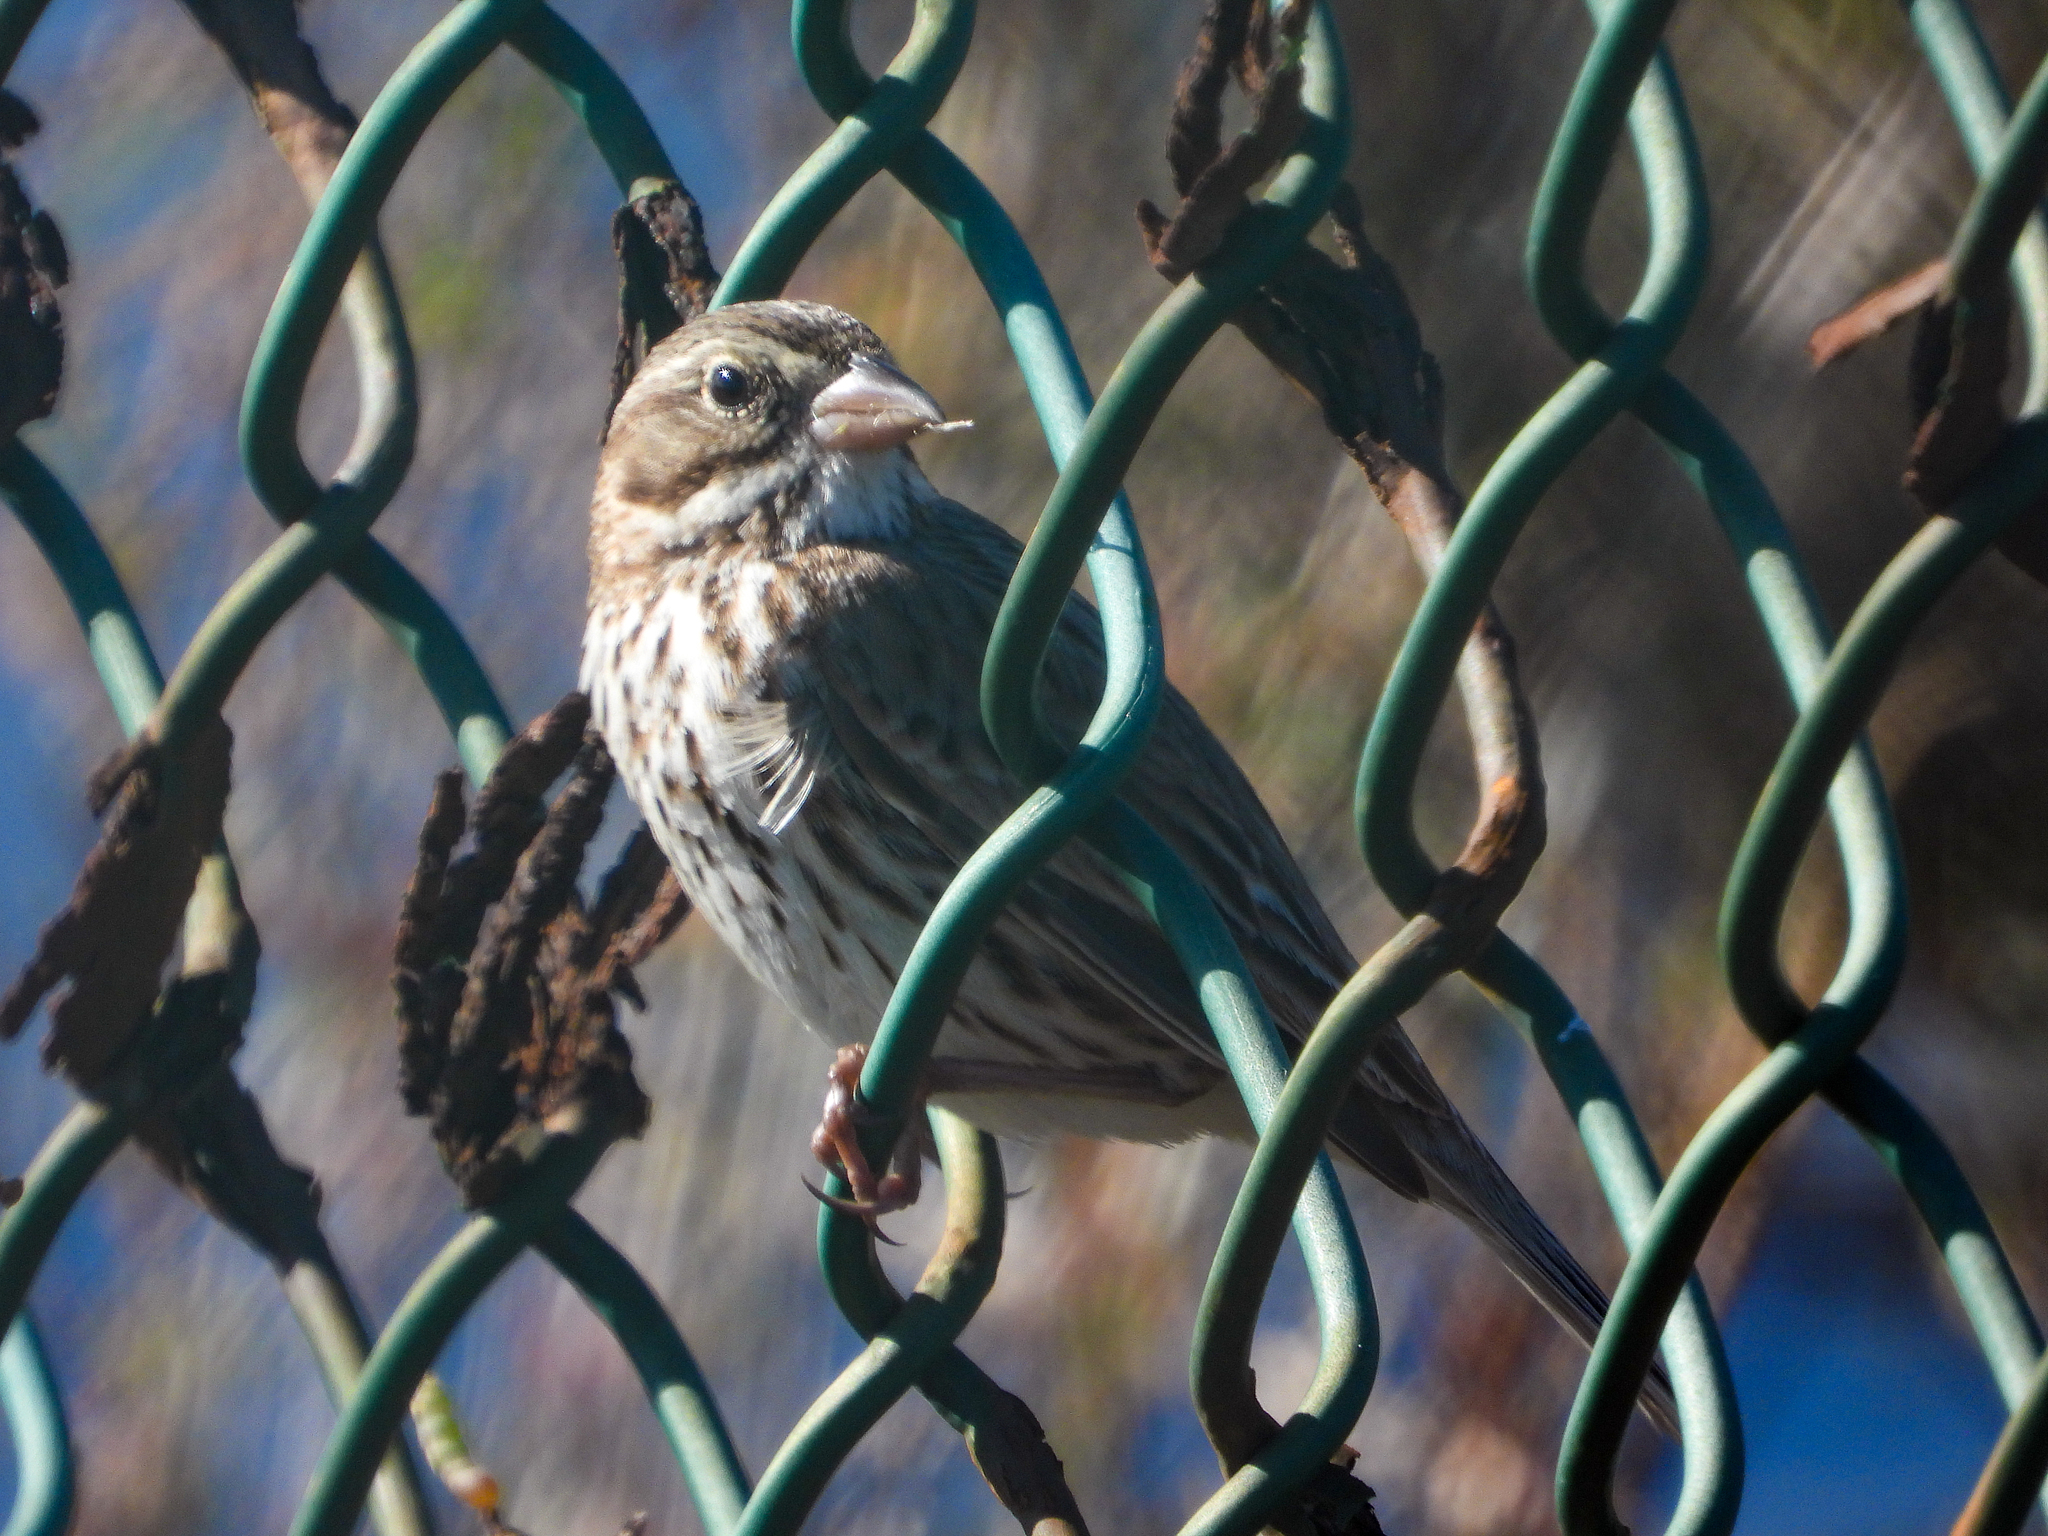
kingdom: Animalia
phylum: Chordata
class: Aves
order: Passeriformes
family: Passerellidae
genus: Passerculus
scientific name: Passerculus sandwichensis
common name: Savannah sparrow
